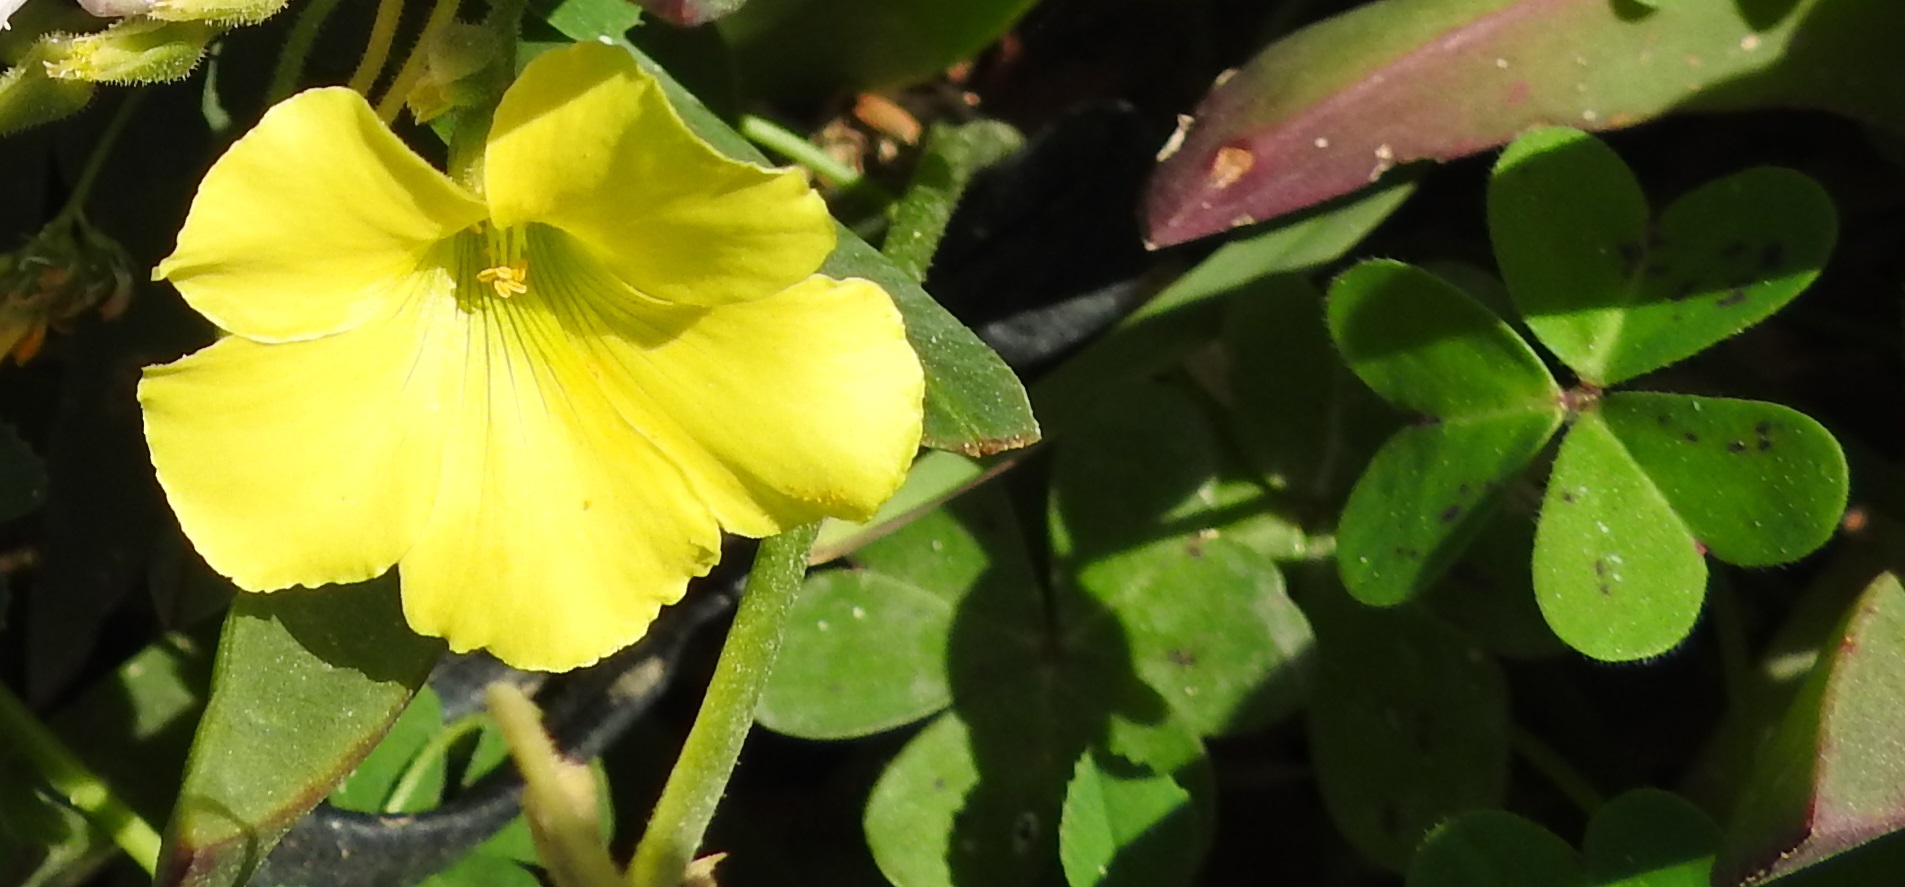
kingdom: Plantae
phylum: Tracheophyta
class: Magnoliopsida
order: Oxalidales
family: Oxalidaceae
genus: Oxalis
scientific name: Oxalis pes-caprae
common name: Bermuda-buttercup
